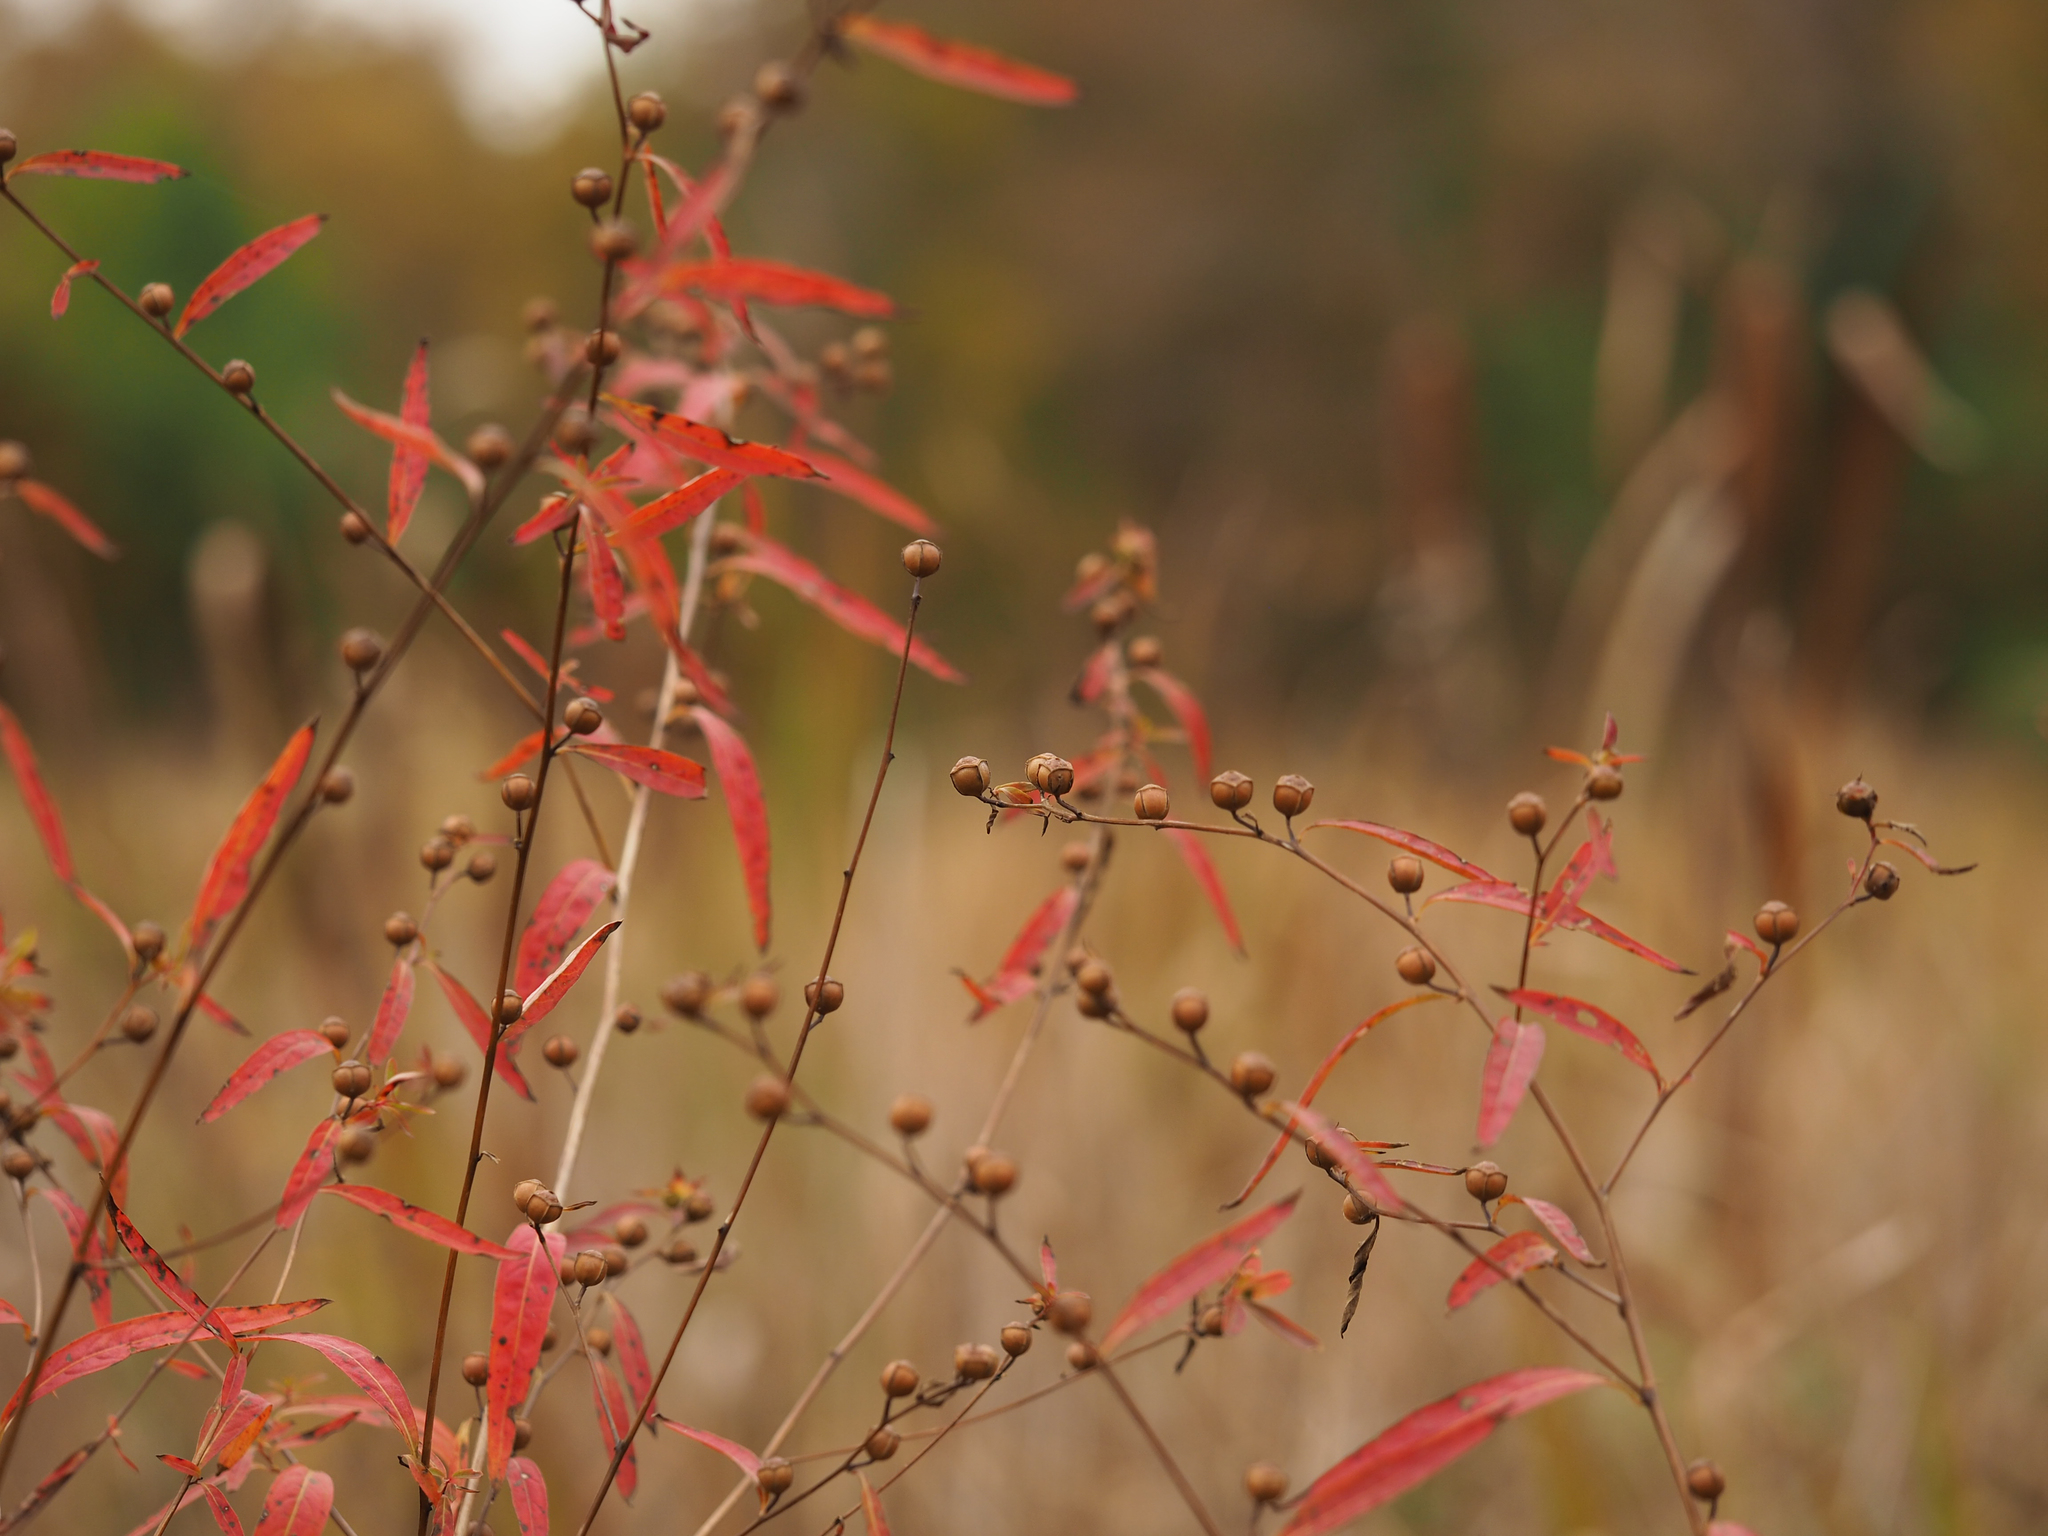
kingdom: Plantae
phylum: Tracheophyta
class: Magnoliopsida
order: Myrtales
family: Onagraceae
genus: Ludwigia
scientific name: Ludwigia alternifolia
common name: Rattlebox
